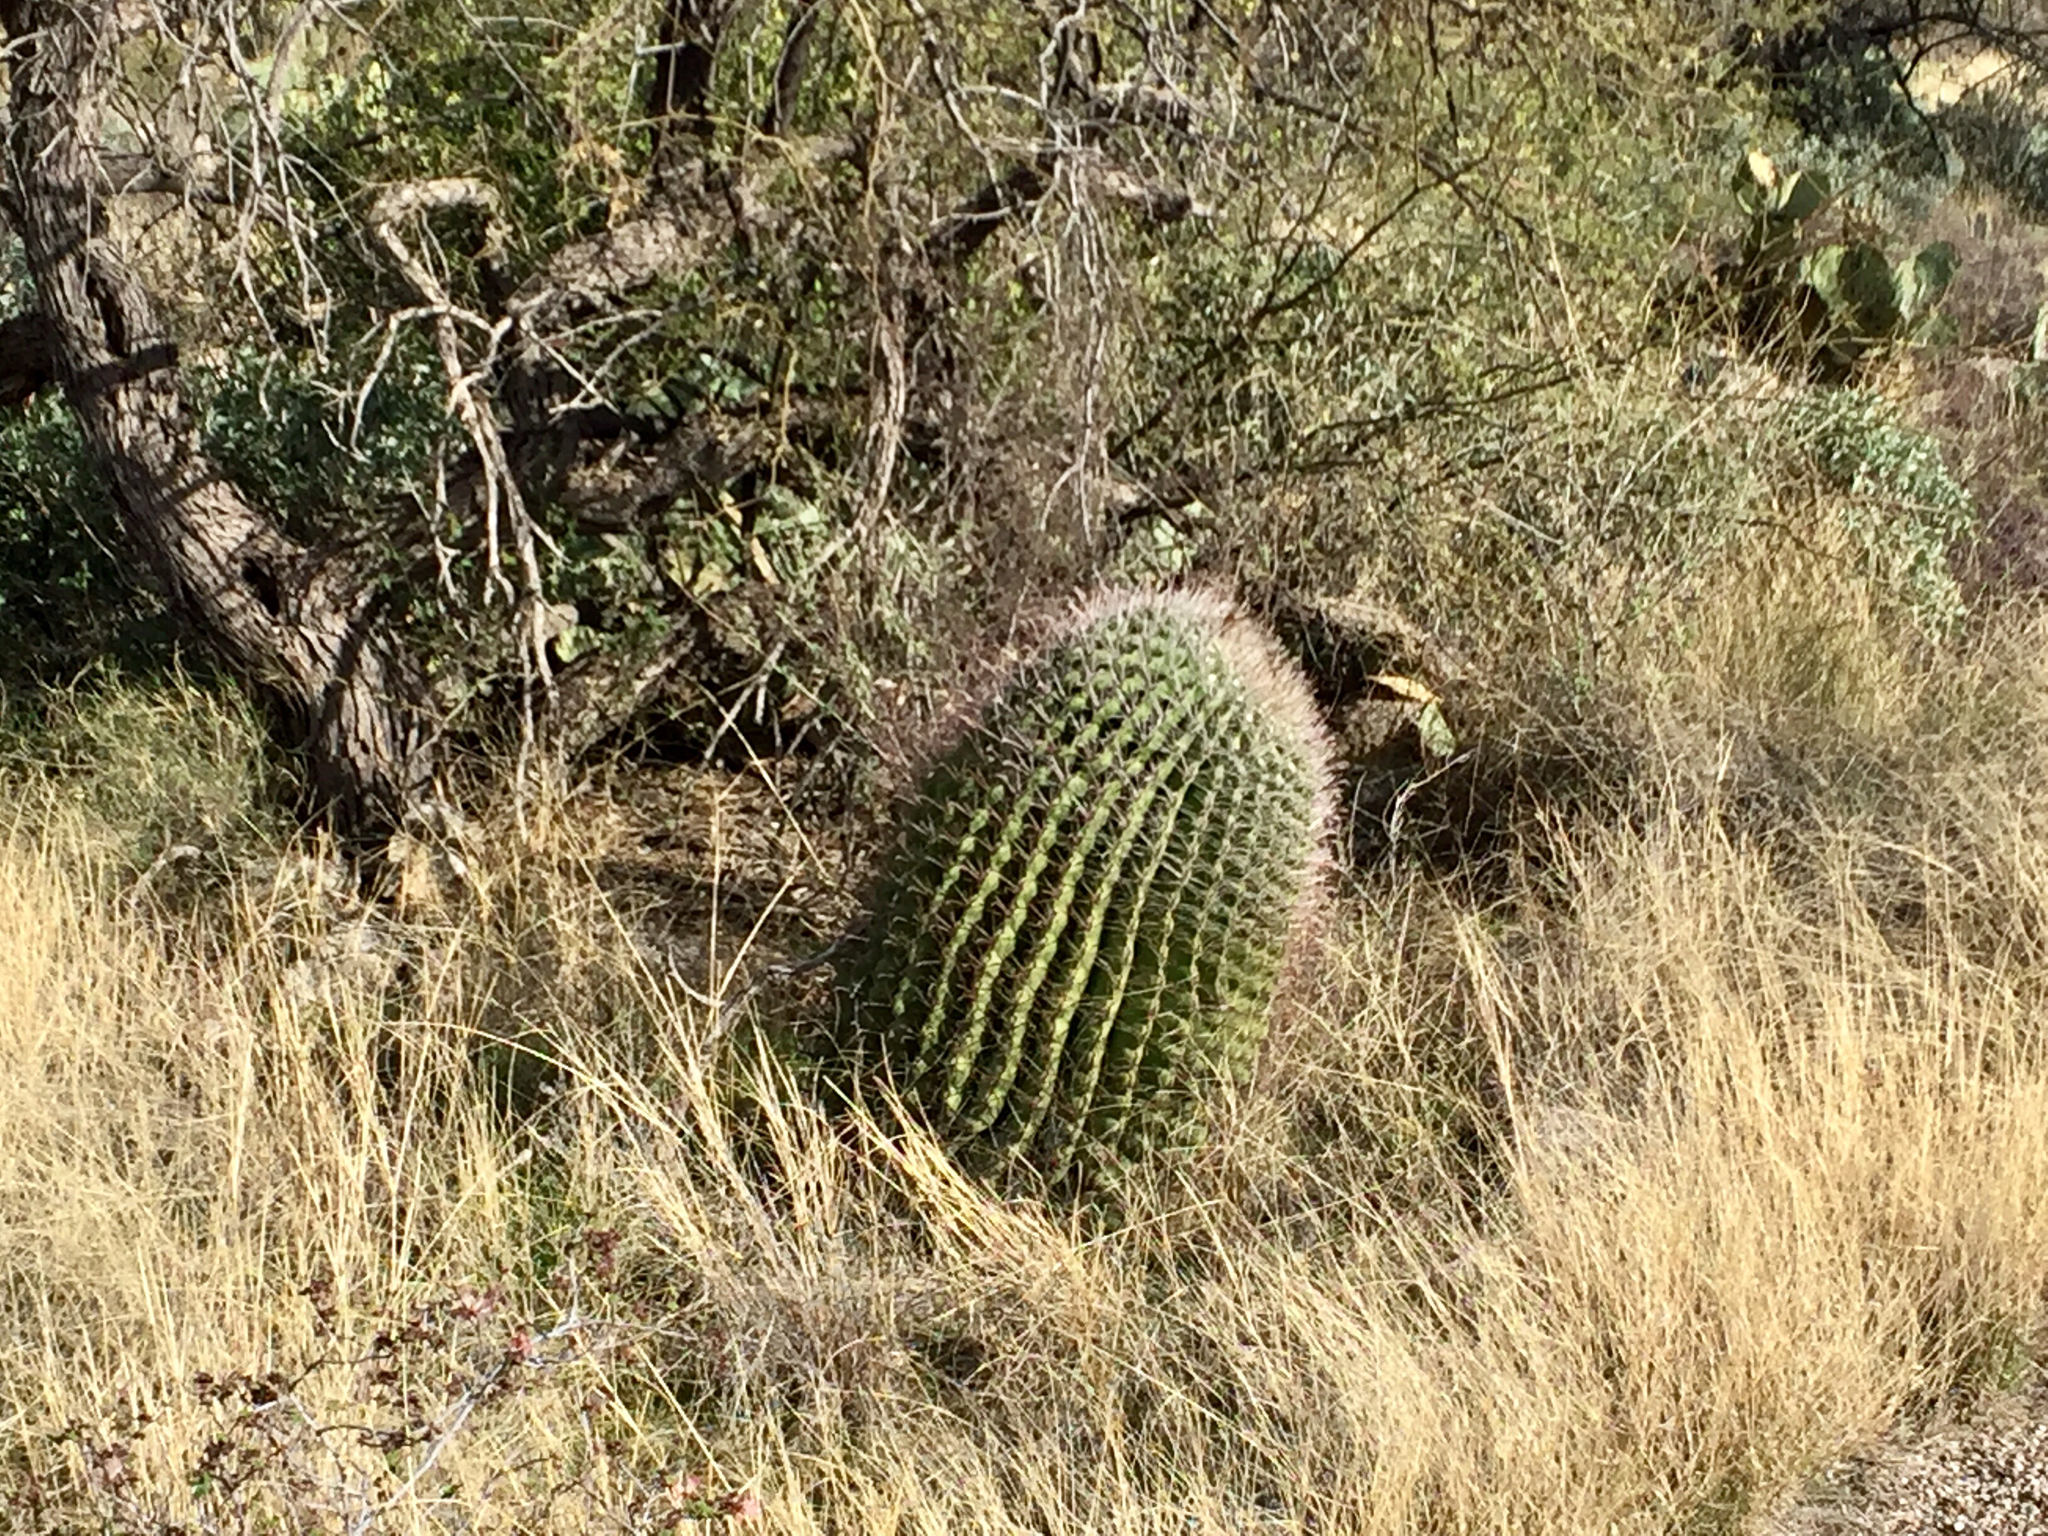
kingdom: Plantae
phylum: Tracheophyta
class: Magnoliopsida
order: Caryophyllales
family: Cactaceae
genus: Ferocactus
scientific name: Ferocactus wislizeni
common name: Candy barrel cactus
